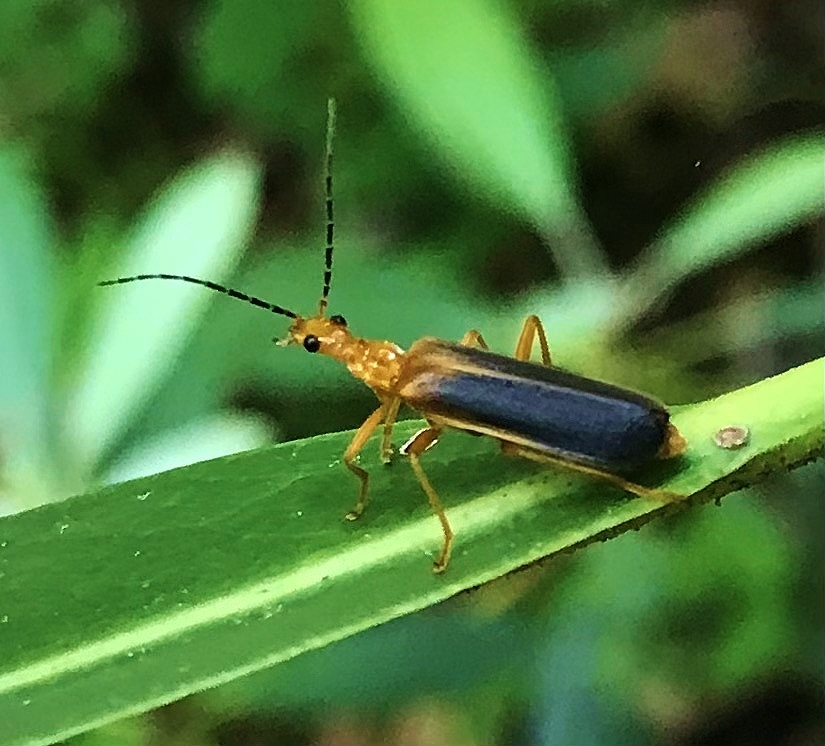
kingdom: Animalia
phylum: Arthropoda
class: Insecta
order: Coleoptera
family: Cantharidae
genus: Podabrus
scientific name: Podabrus protensus
